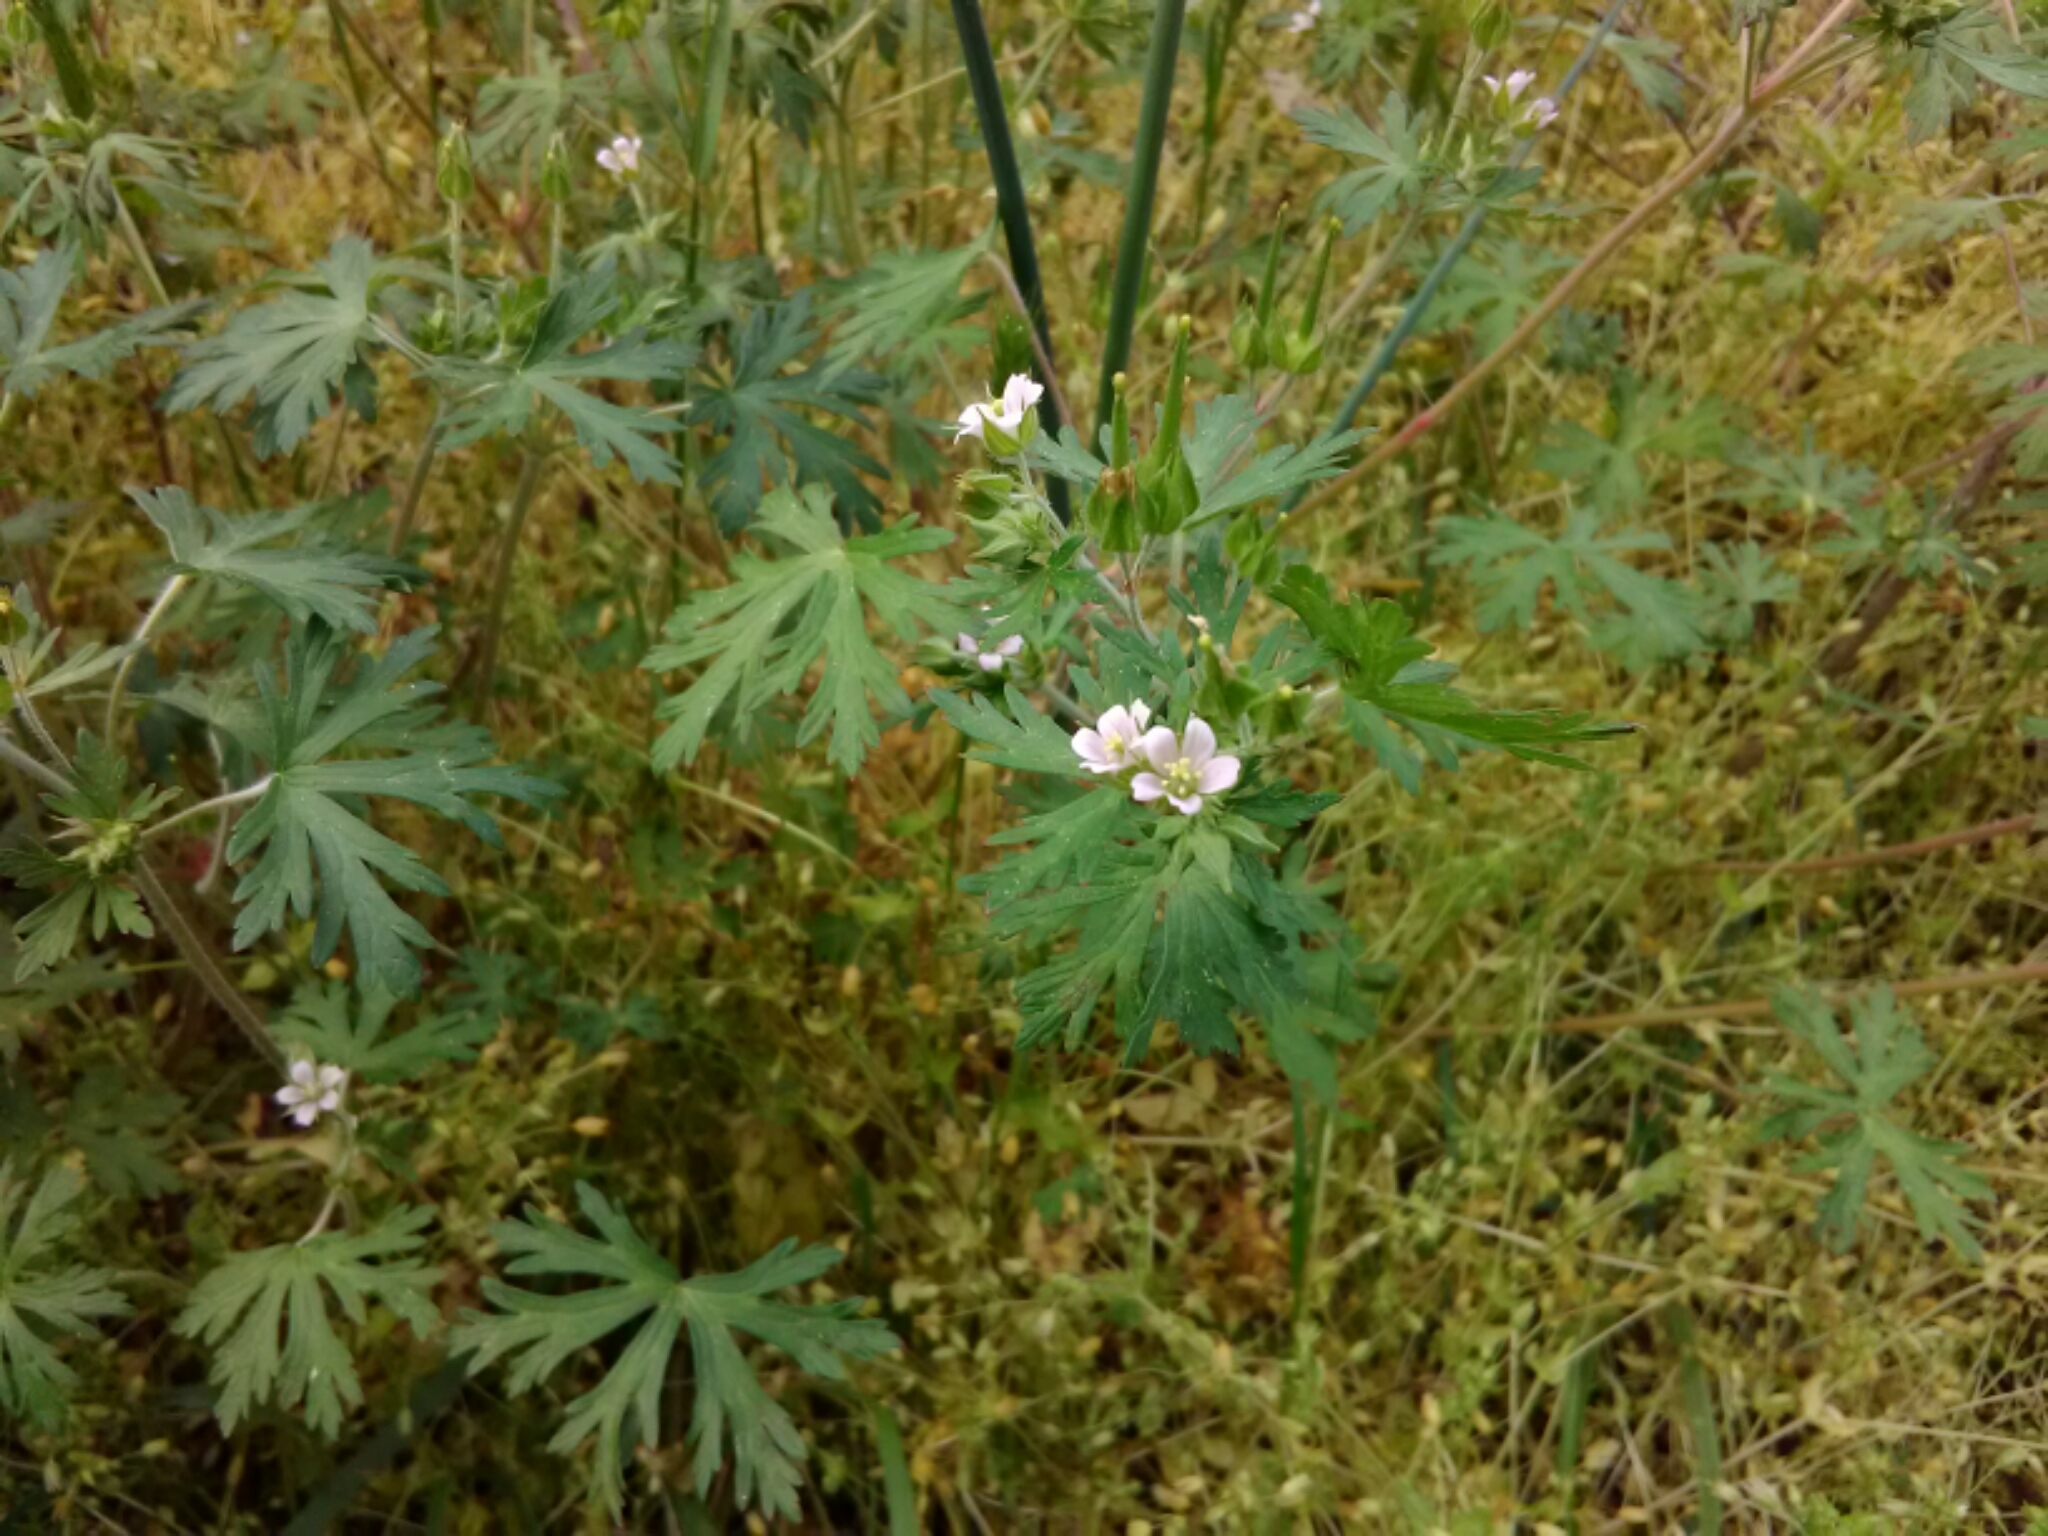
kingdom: Plantae
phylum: Tracheophyta
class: Magnoliopsida
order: Geraniales
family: Geraniaceae
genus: Geranium
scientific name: Geranium carolinianum
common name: Carolina crane's-bill
